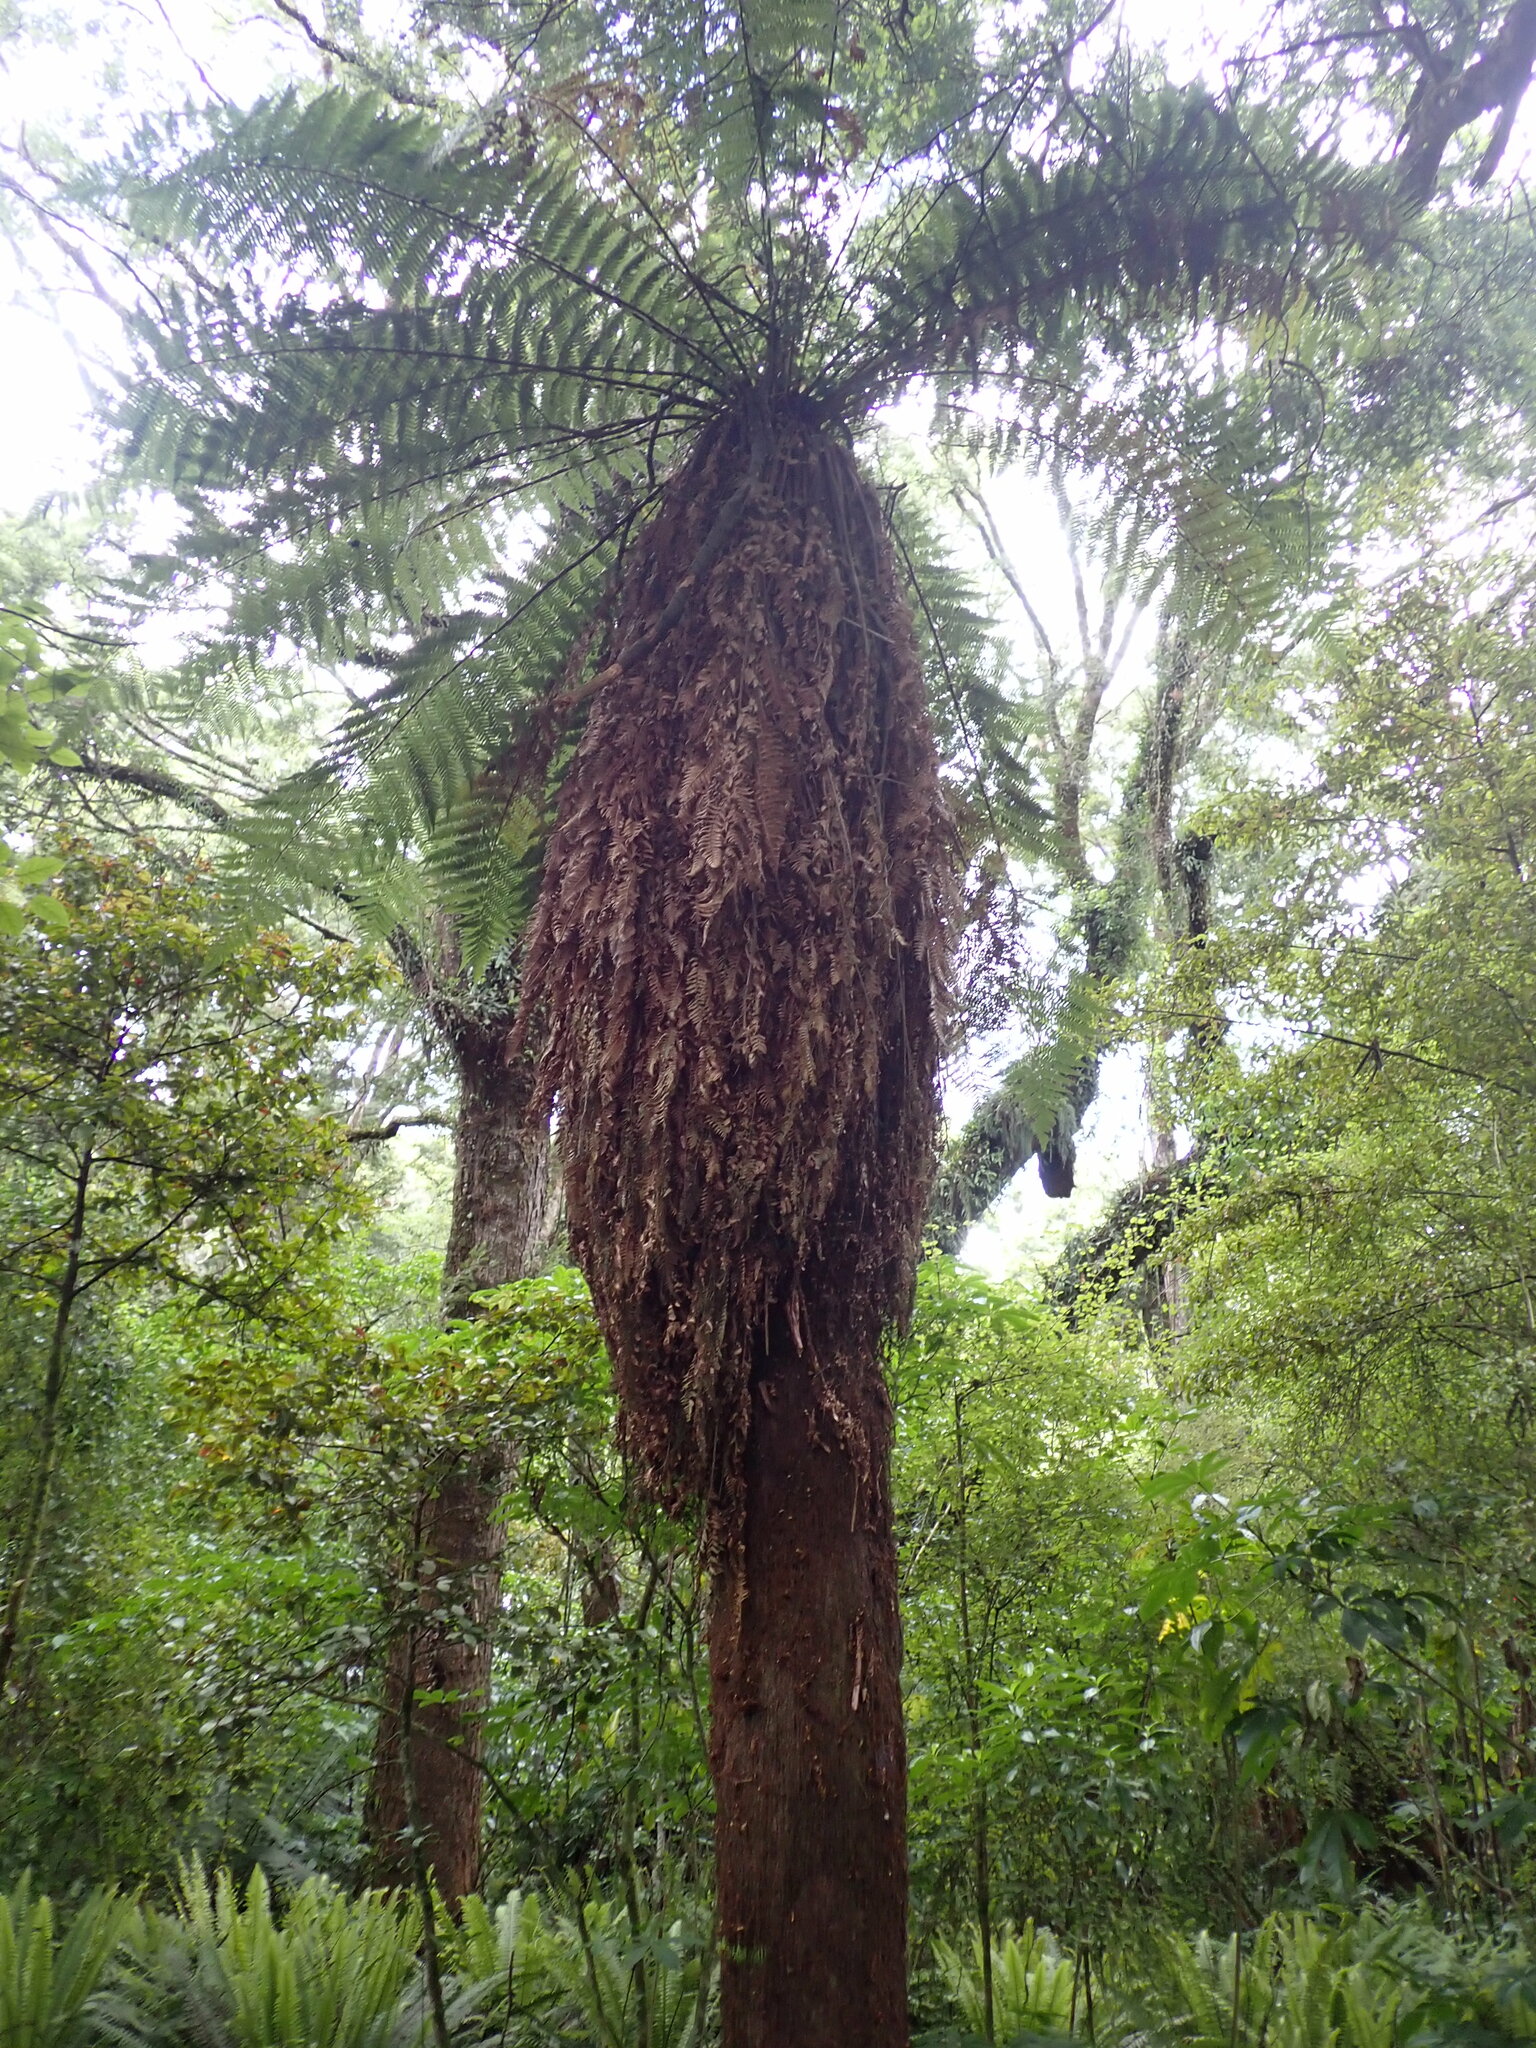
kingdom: Plantae
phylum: Tracheophyta
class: Polypodiopsida
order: Cyatheales
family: Dicksoniaceae
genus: Dicksonia
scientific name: Dicksonia fibrosa
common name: Golden tree fern
